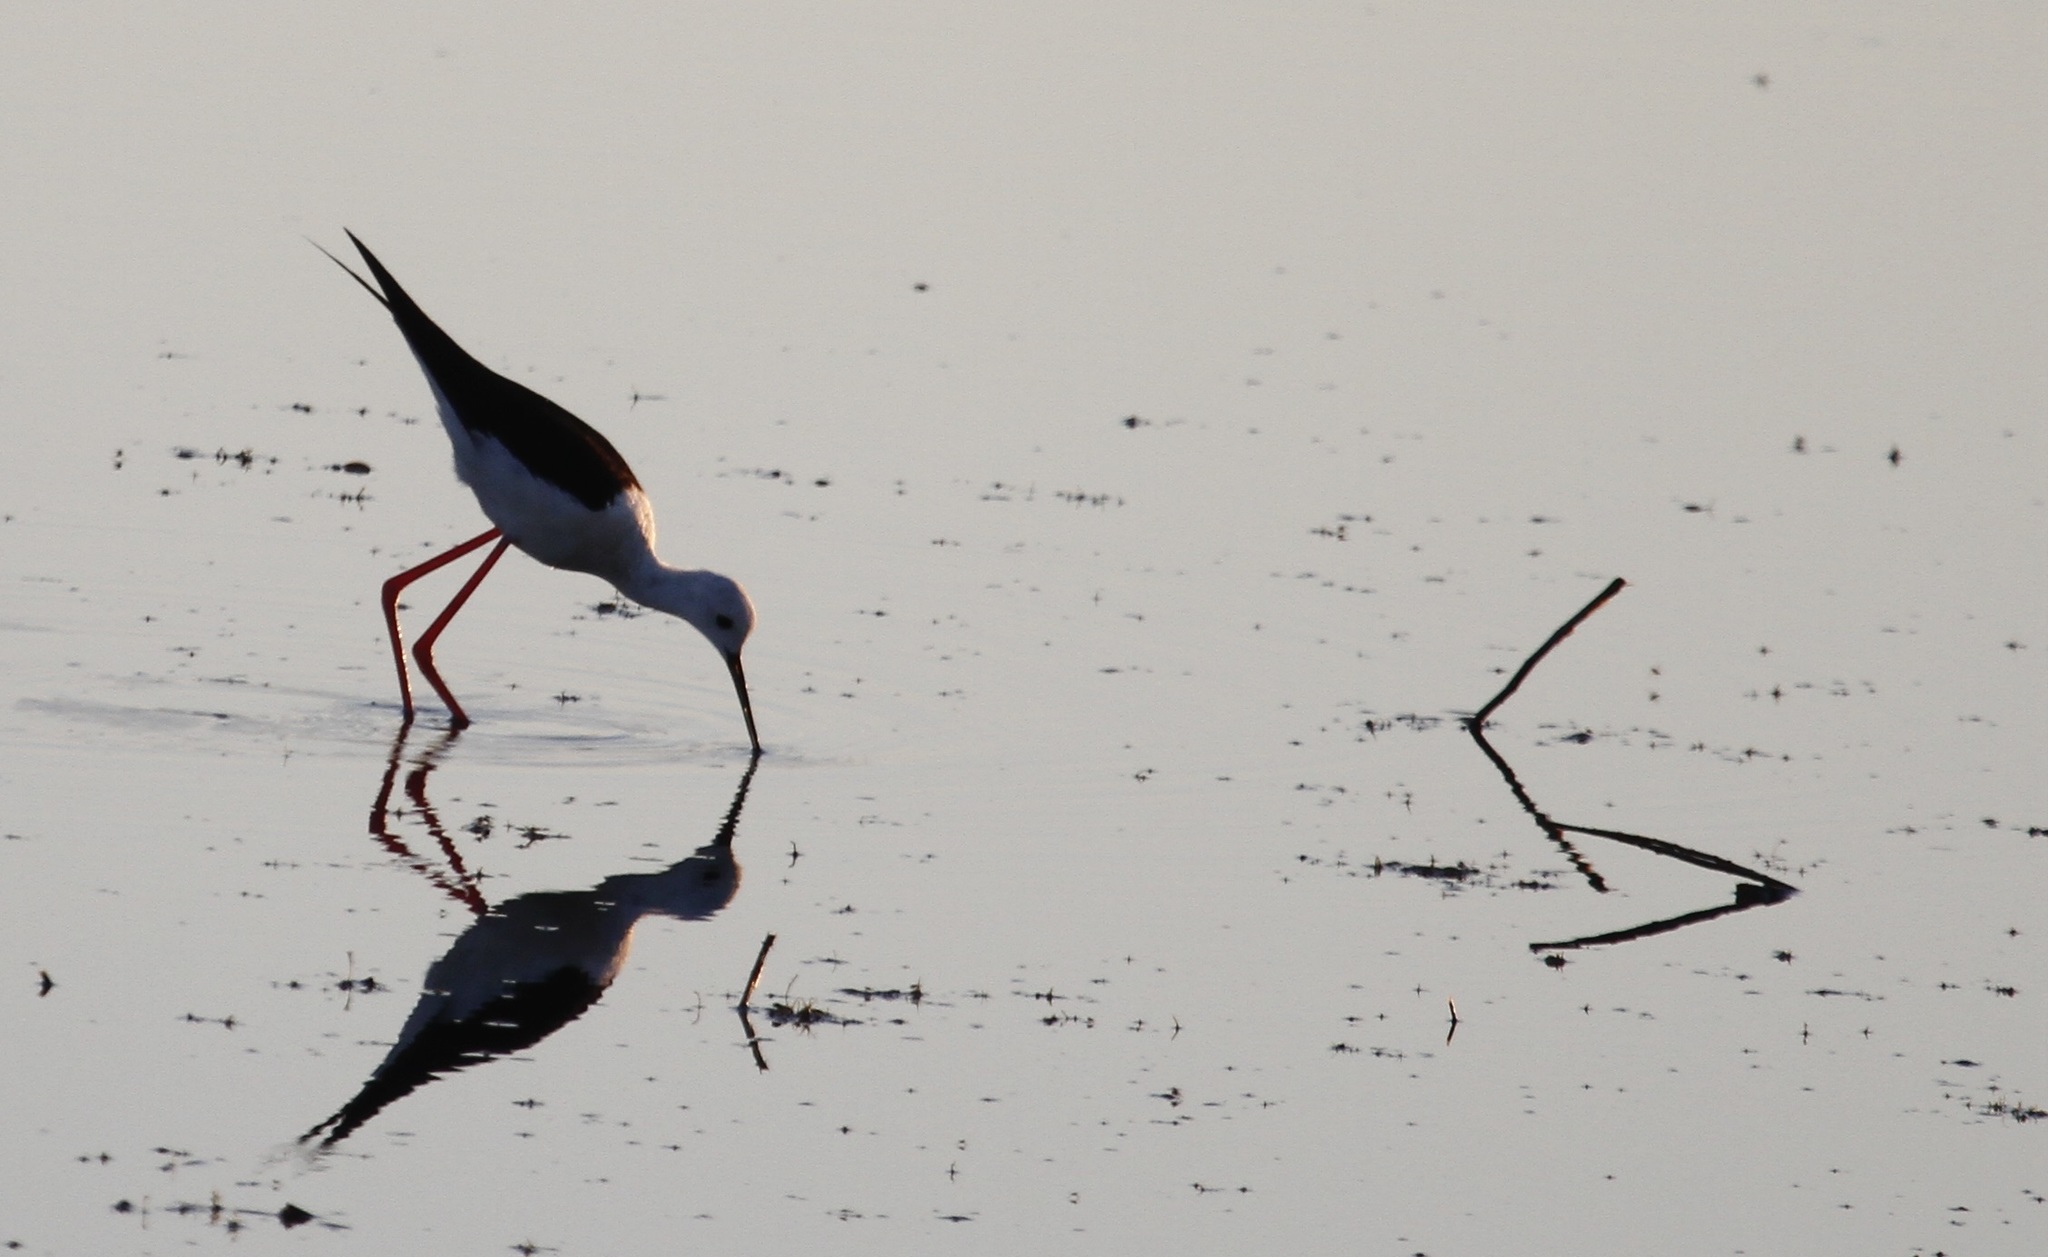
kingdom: Animalia
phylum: Chordata
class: Aves
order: Charadriiformes
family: Recurvirostridae
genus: Himantopus
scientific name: Himantopus himantopus
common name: Black-winged stilt
